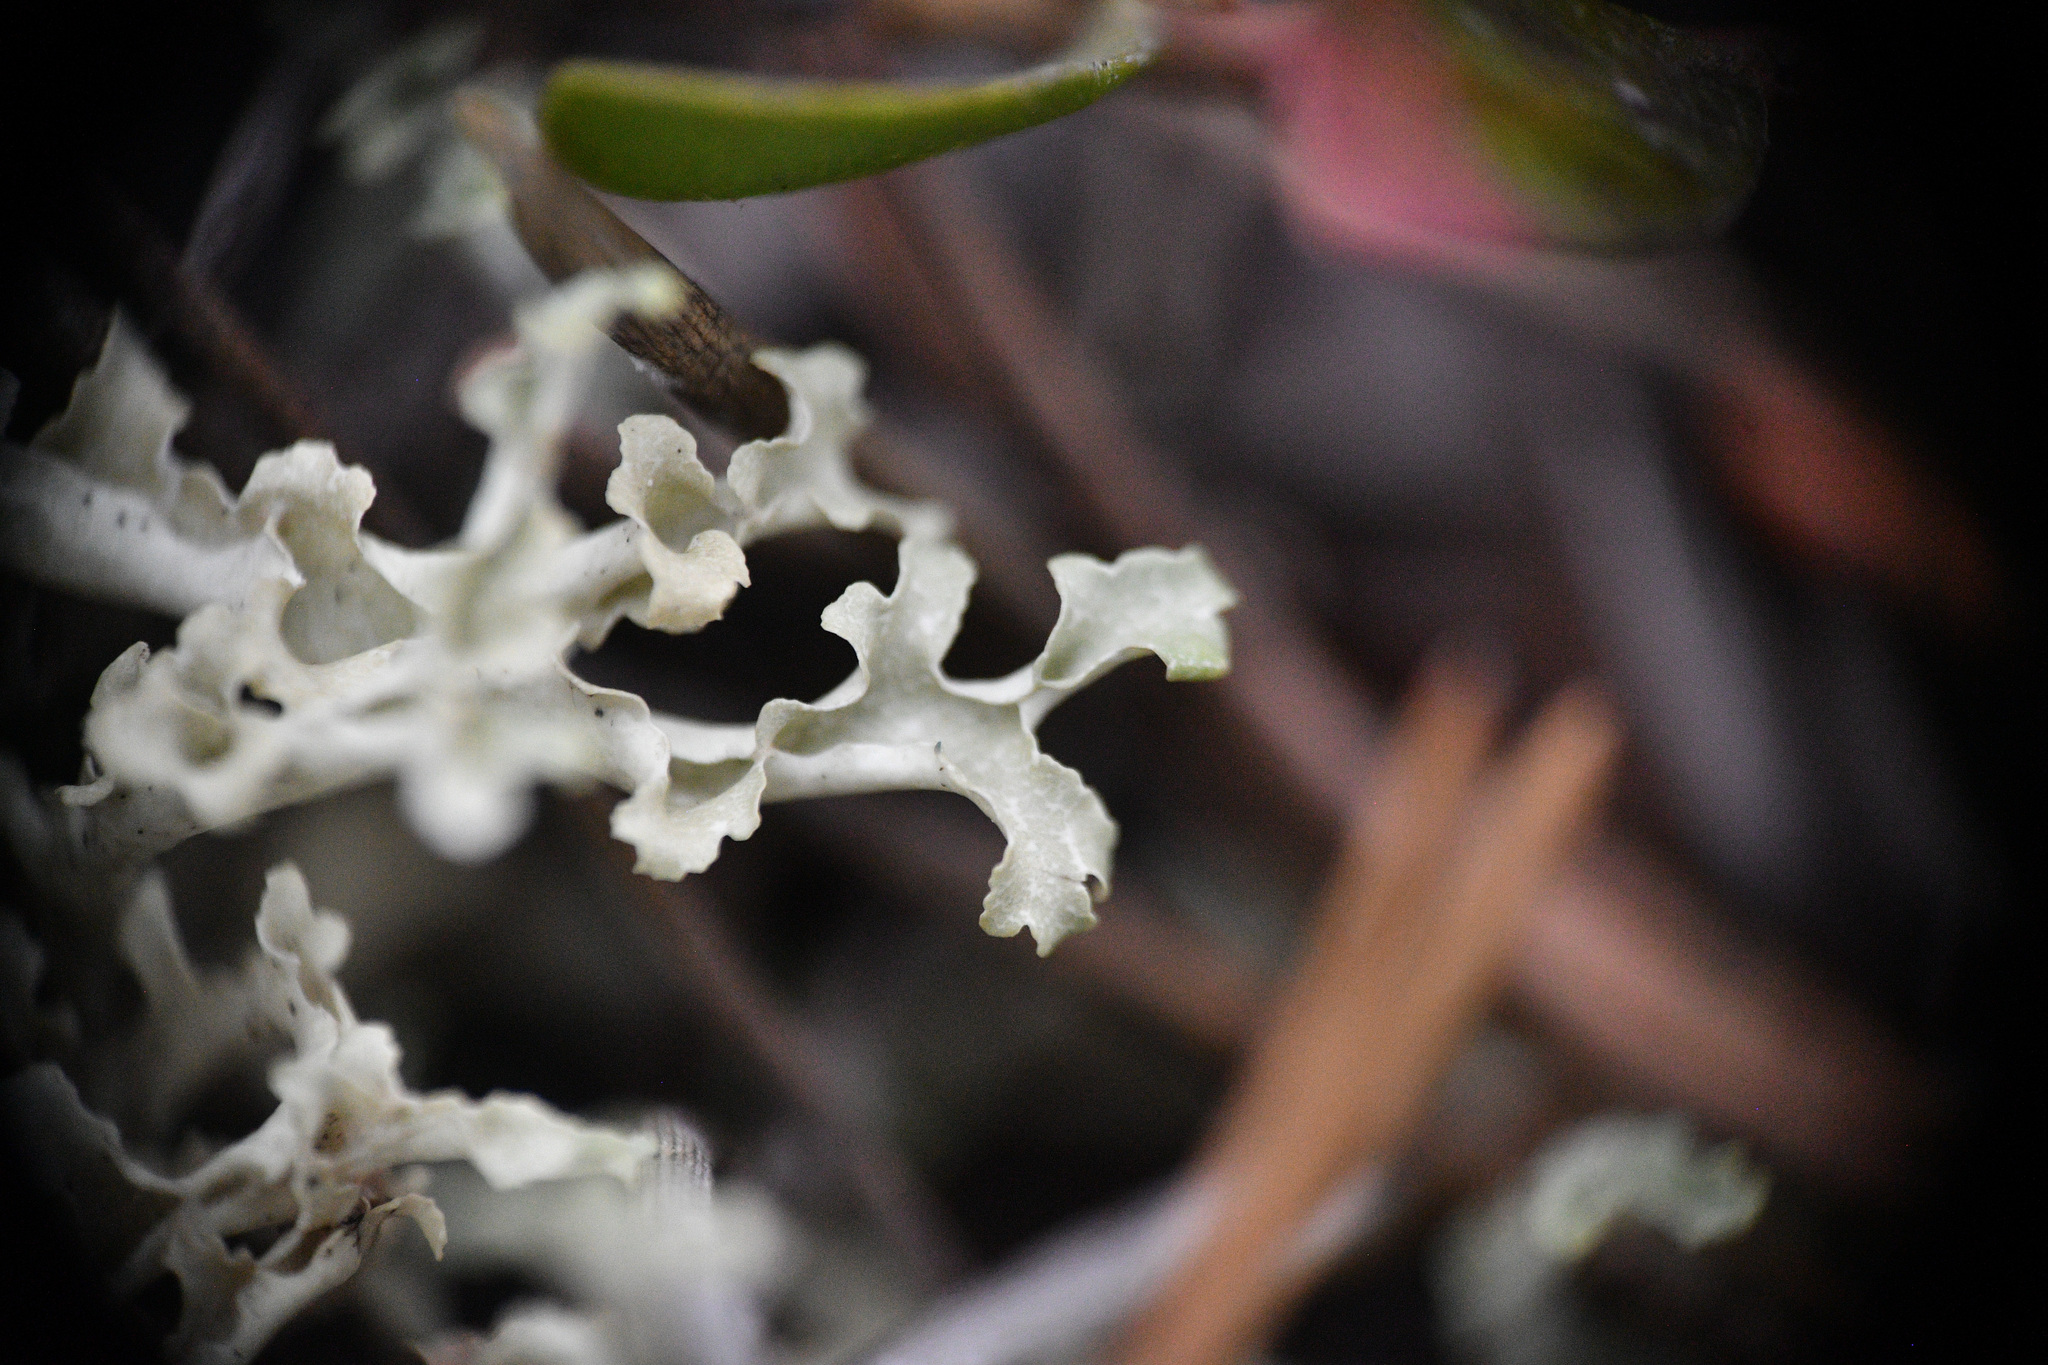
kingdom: Fungi
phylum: Ascomycota
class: Lecanoromycetes
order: Lecanorales
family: Parmeliaceae
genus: Nephromopsis
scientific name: Nephromopsis cucullata
